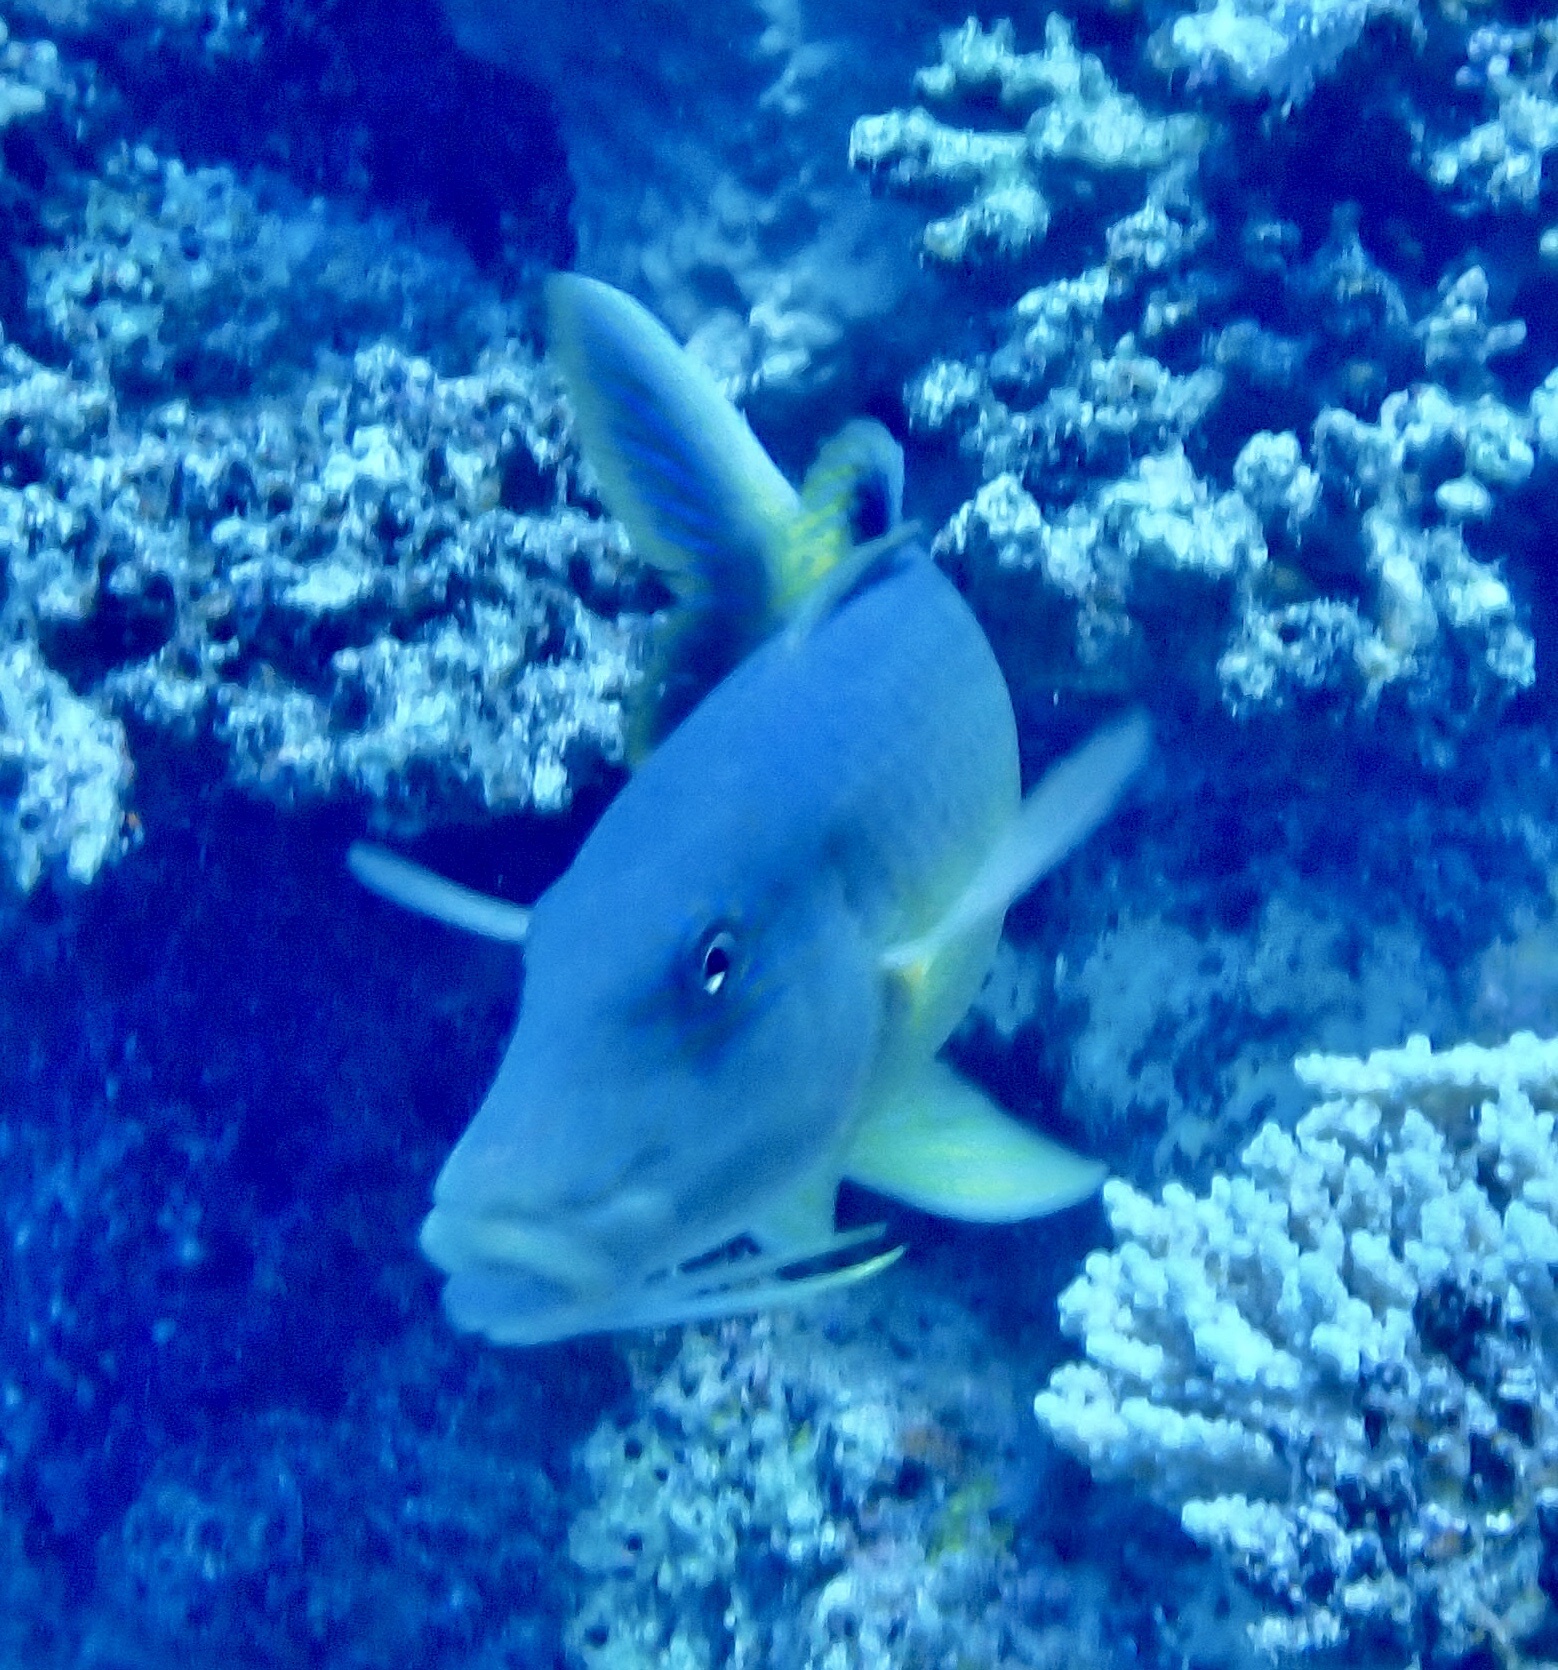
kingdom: Animalia
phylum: Chordata
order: Perciformes
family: Mullidae
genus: Parupeneus
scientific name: Parupeneus cyclostomus
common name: Goldsaddle goatfish
